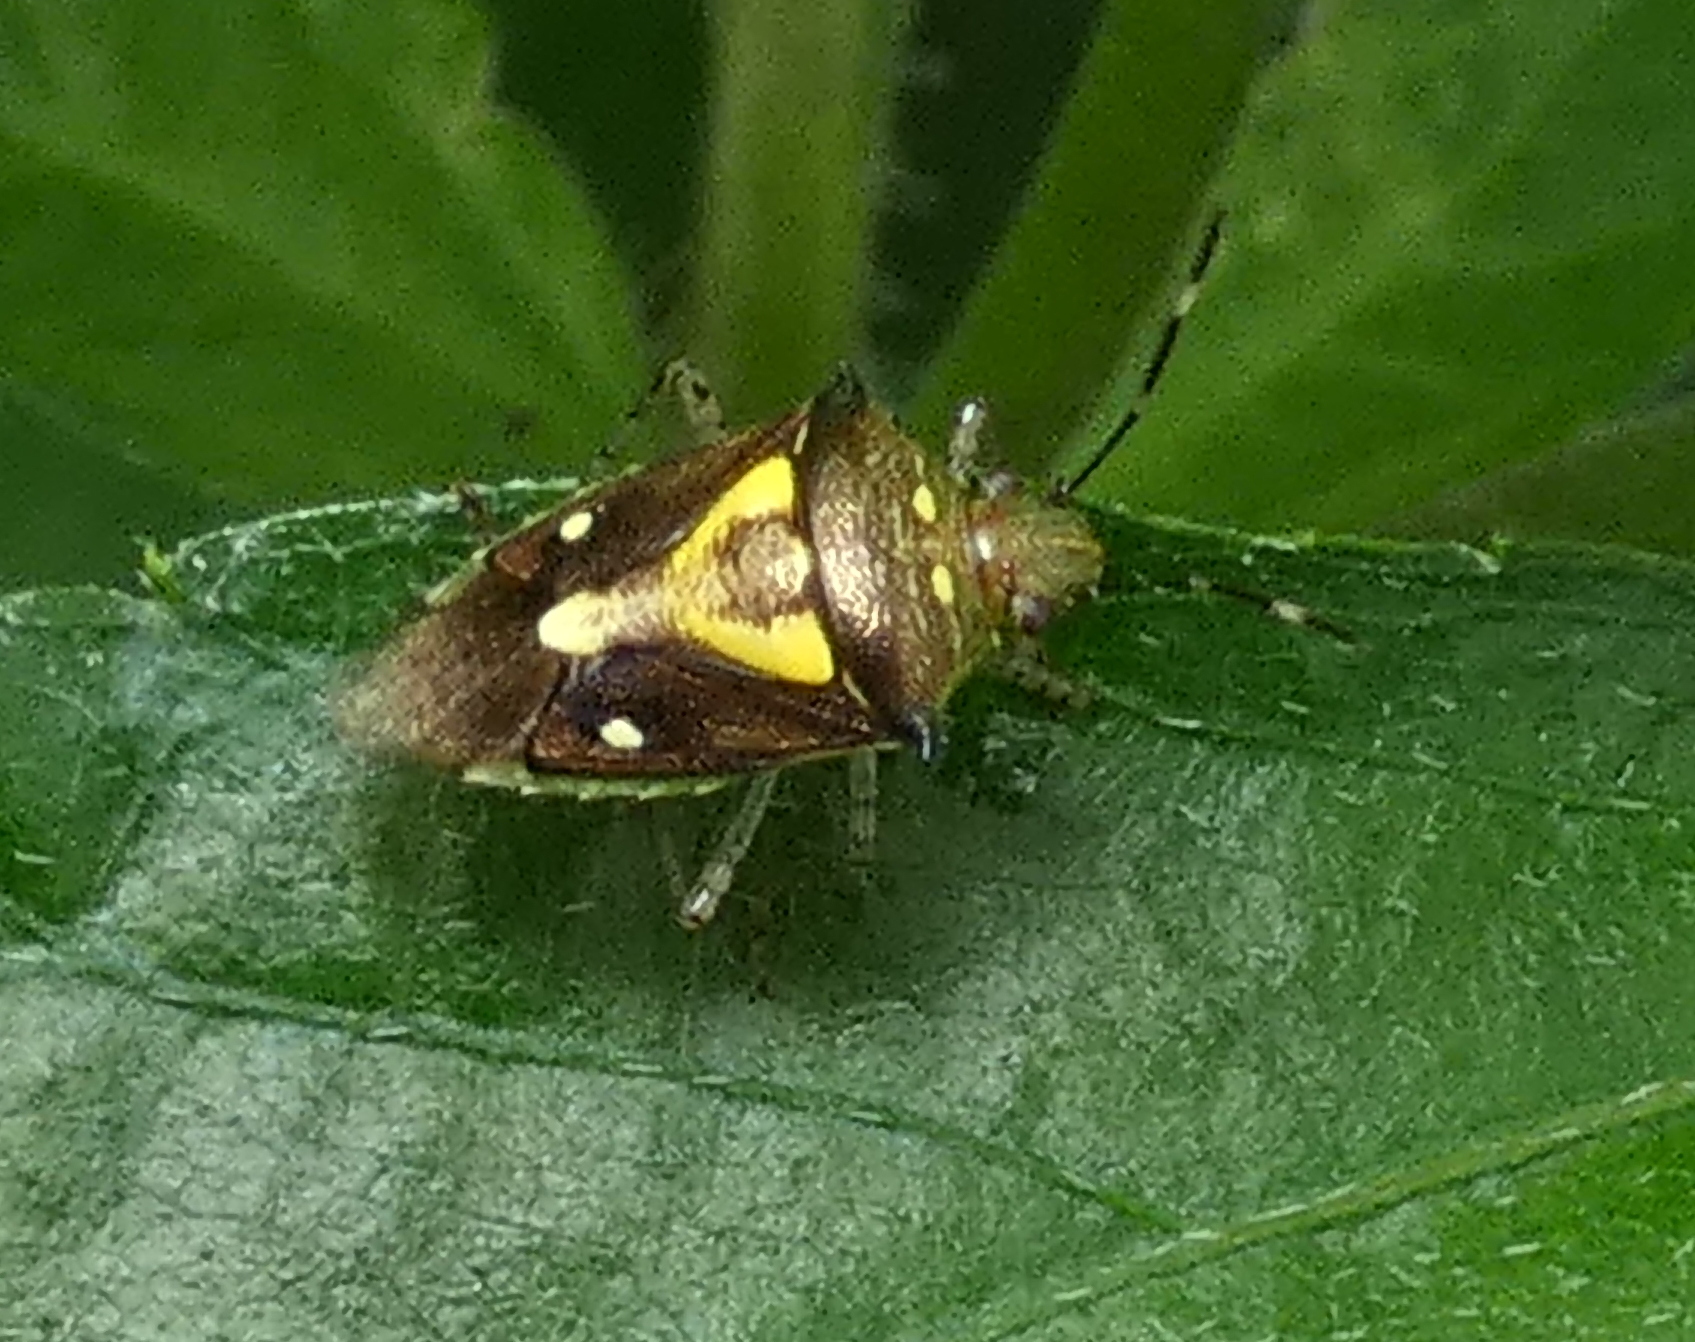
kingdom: Animalia
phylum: Arthropoda
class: Insecta
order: Hemiptera
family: Pentatomidae
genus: Mormidea
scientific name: Mormidea ypsilon
